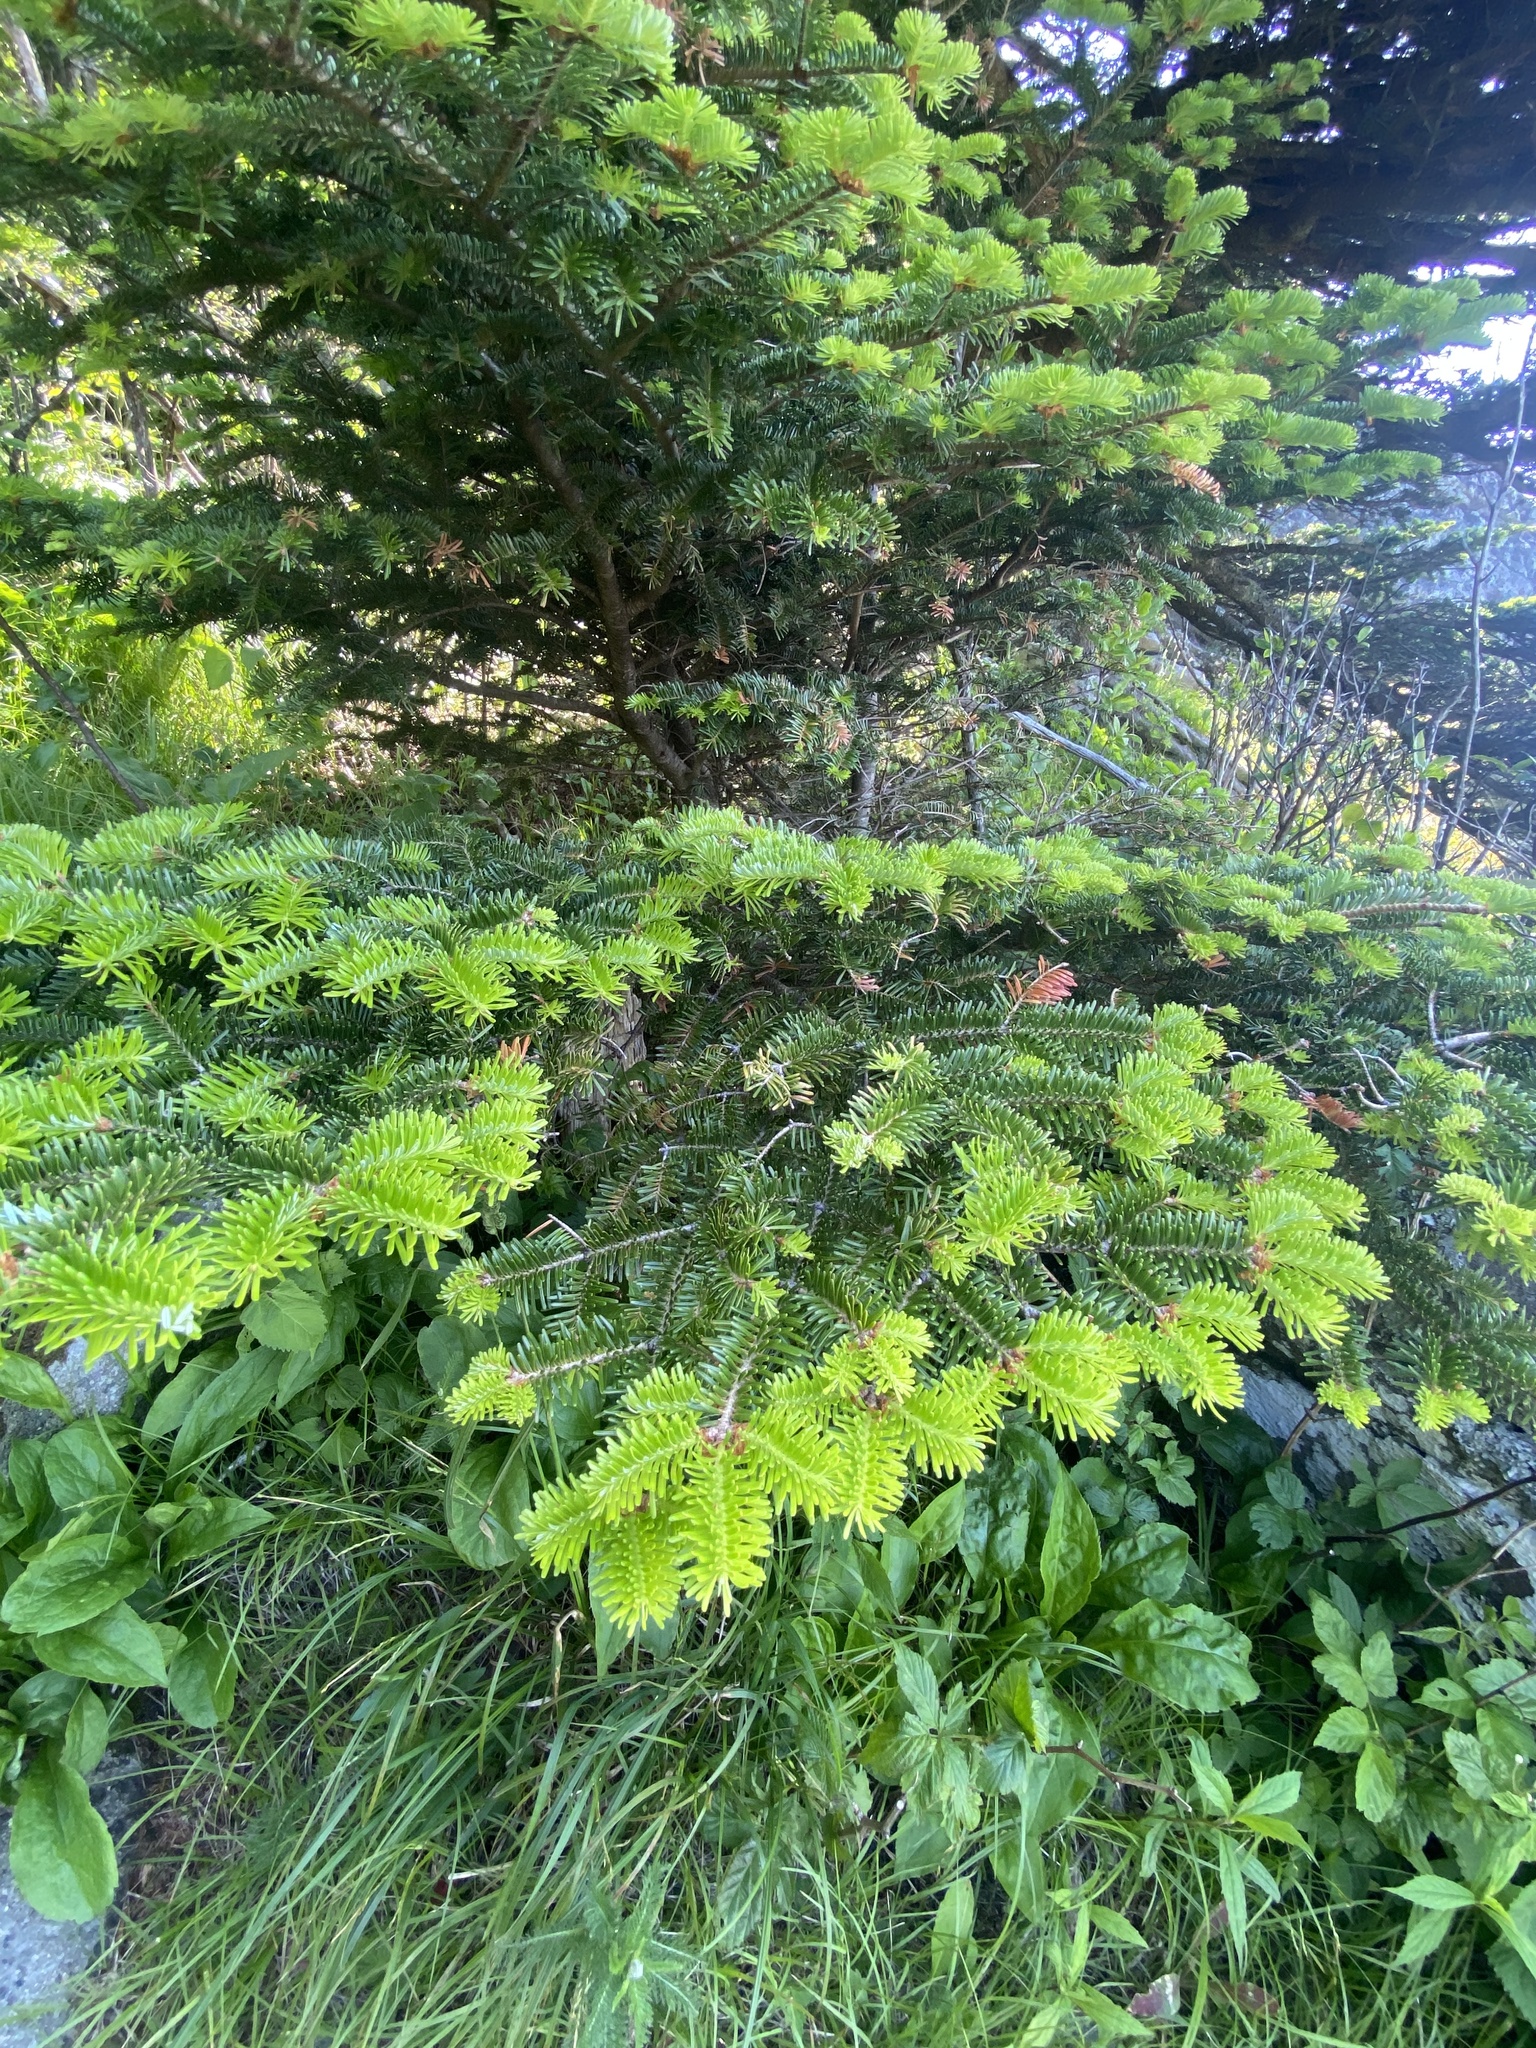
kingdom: Plantae
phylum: Tracheophyta
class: Pinopsida
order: Pinales
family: Pinaceae
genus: Abies
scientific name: Abies fraseri
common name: Fraser fir
